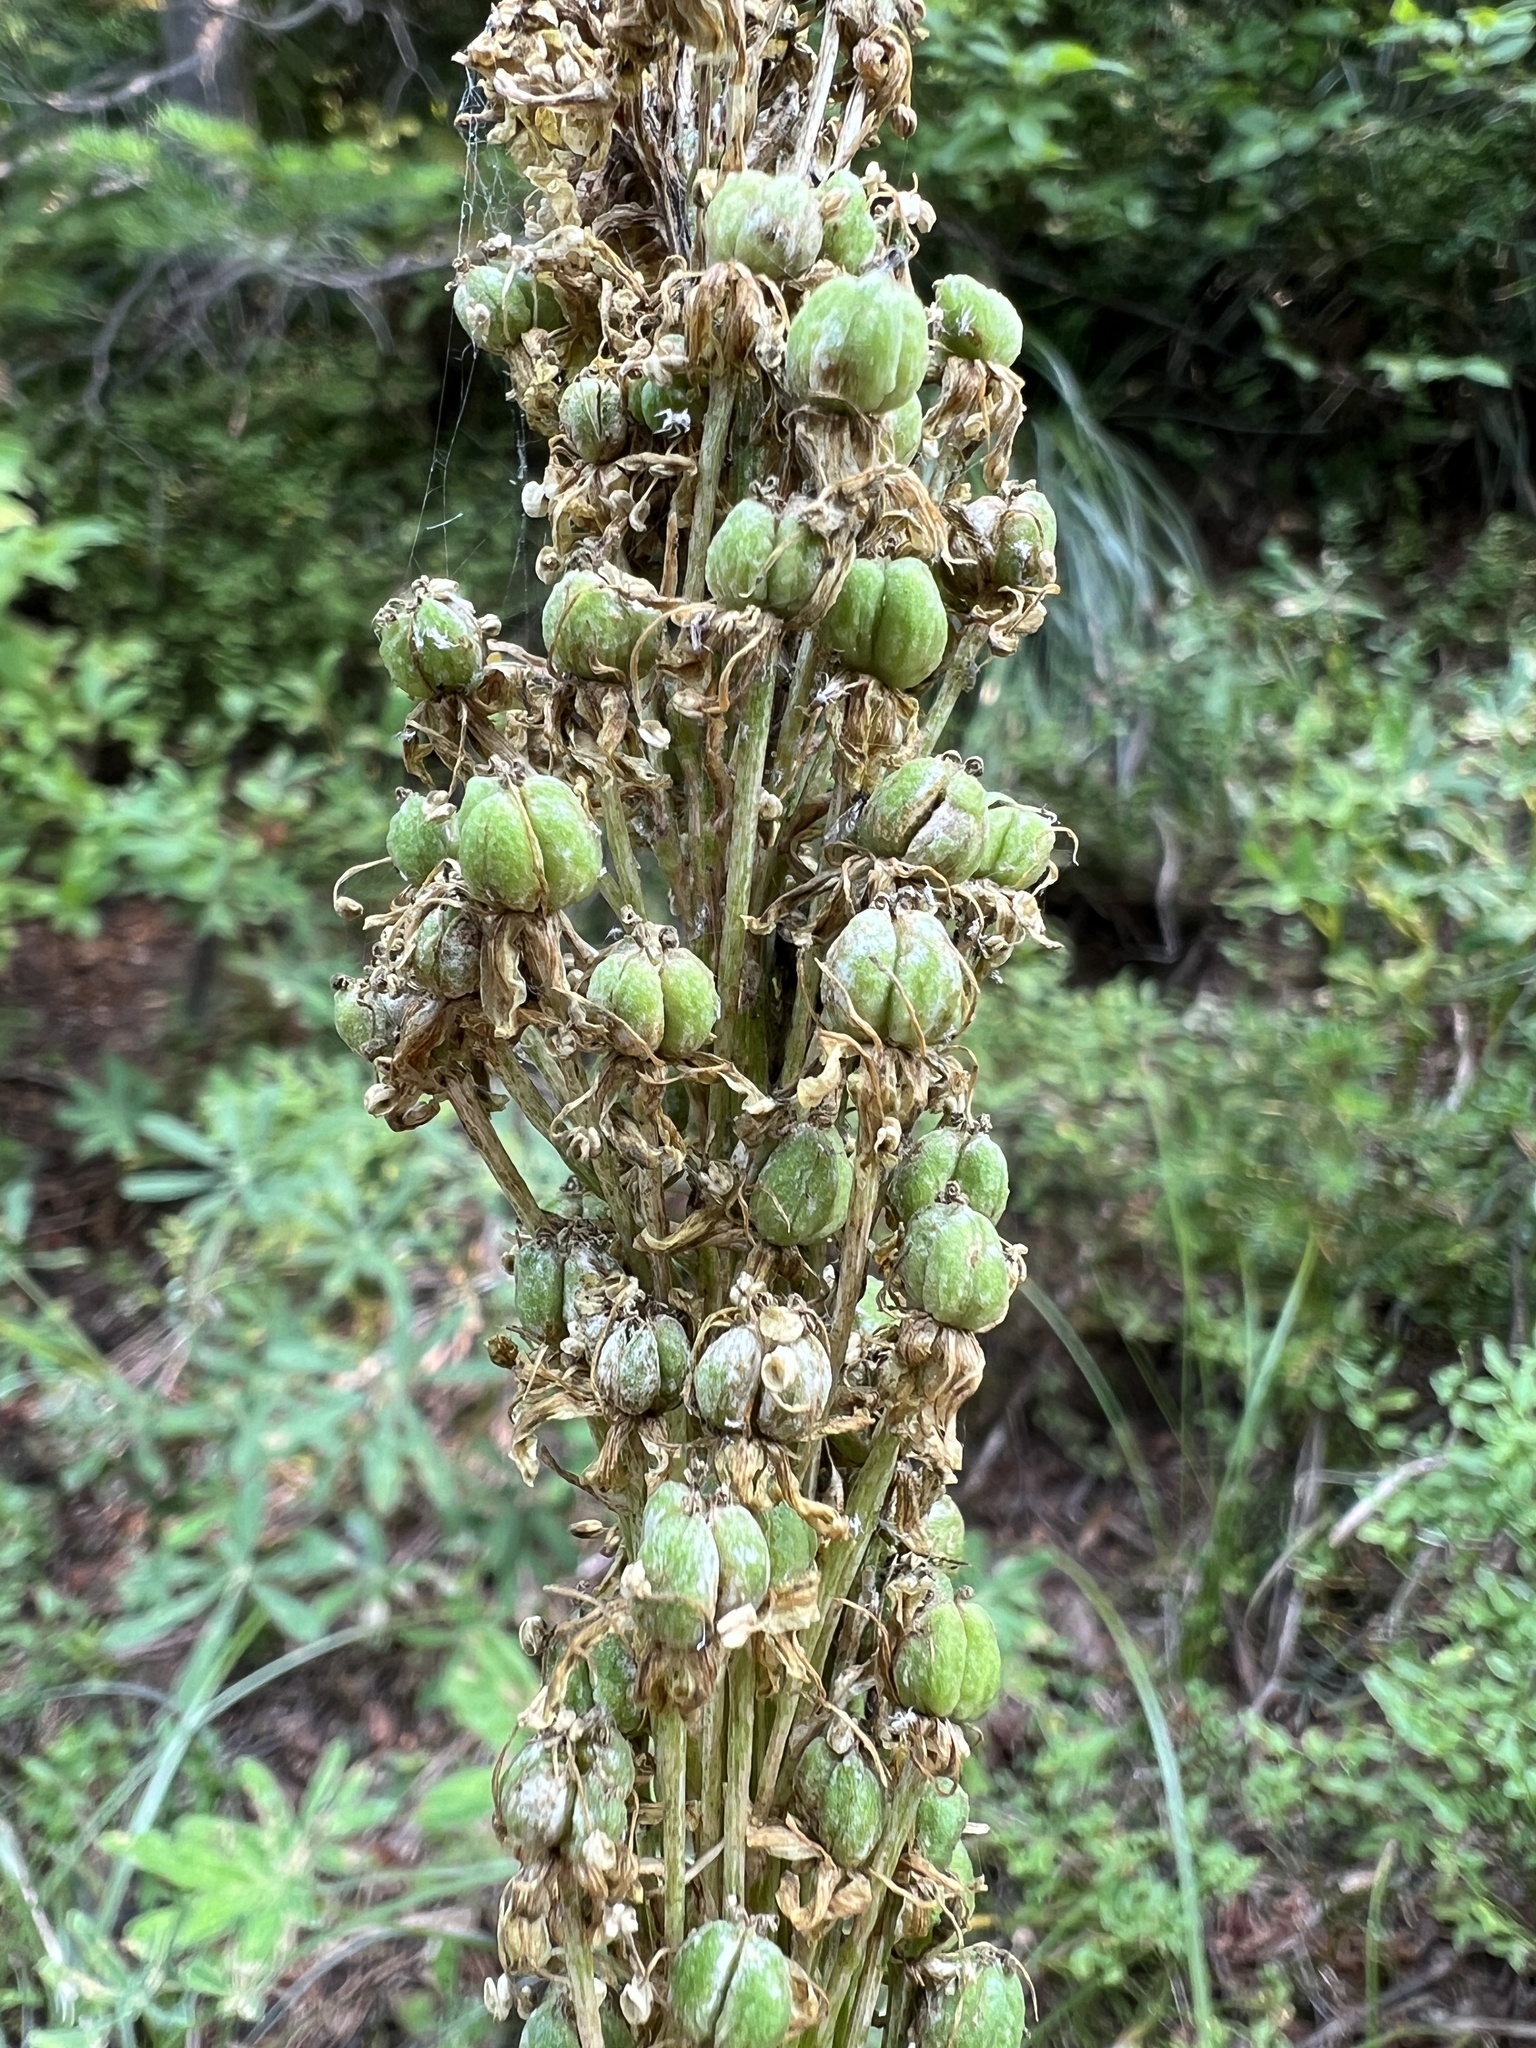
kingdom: Plantae
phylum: Tracheophyta
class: Liliopsida
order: Liliales
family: Melanthiaceae
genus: Xerophyllum
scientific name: Xerophyllum tenax
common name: Bear-grass
